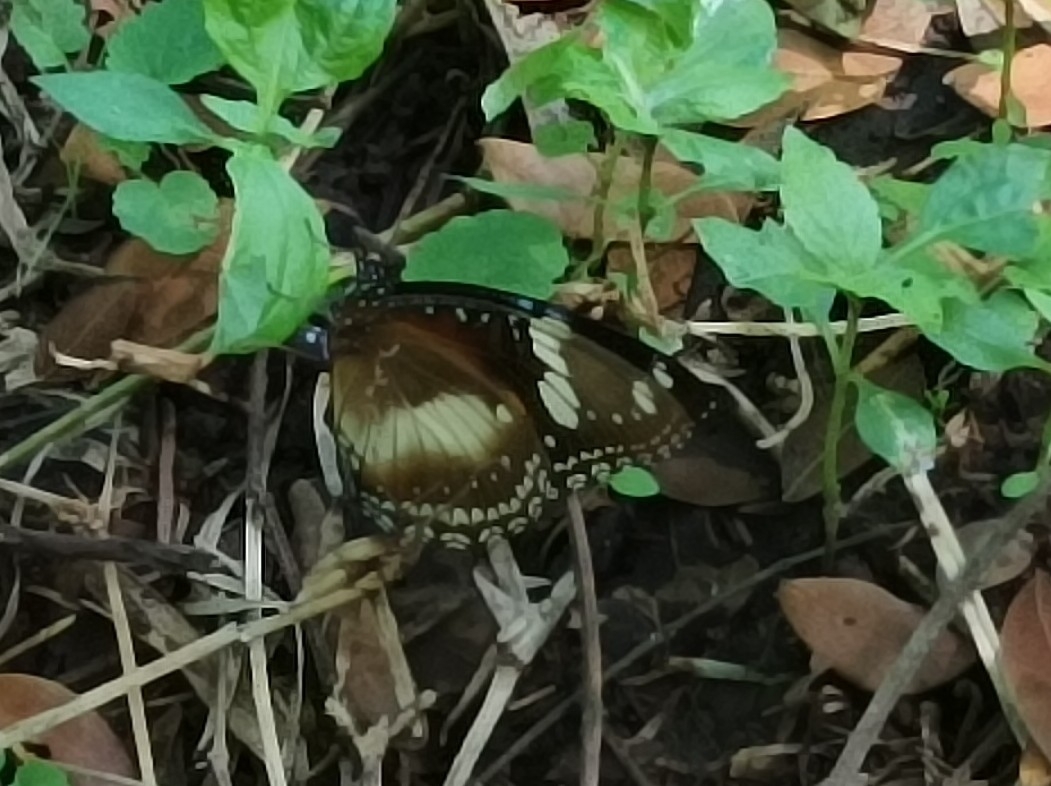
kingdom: Animalia
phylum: Arthropoda
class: Insecta
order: Lepidoptera
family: Nymphalidae
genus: Hypolimnas
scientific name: Hypolimnas bolina
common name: Great eggfly
